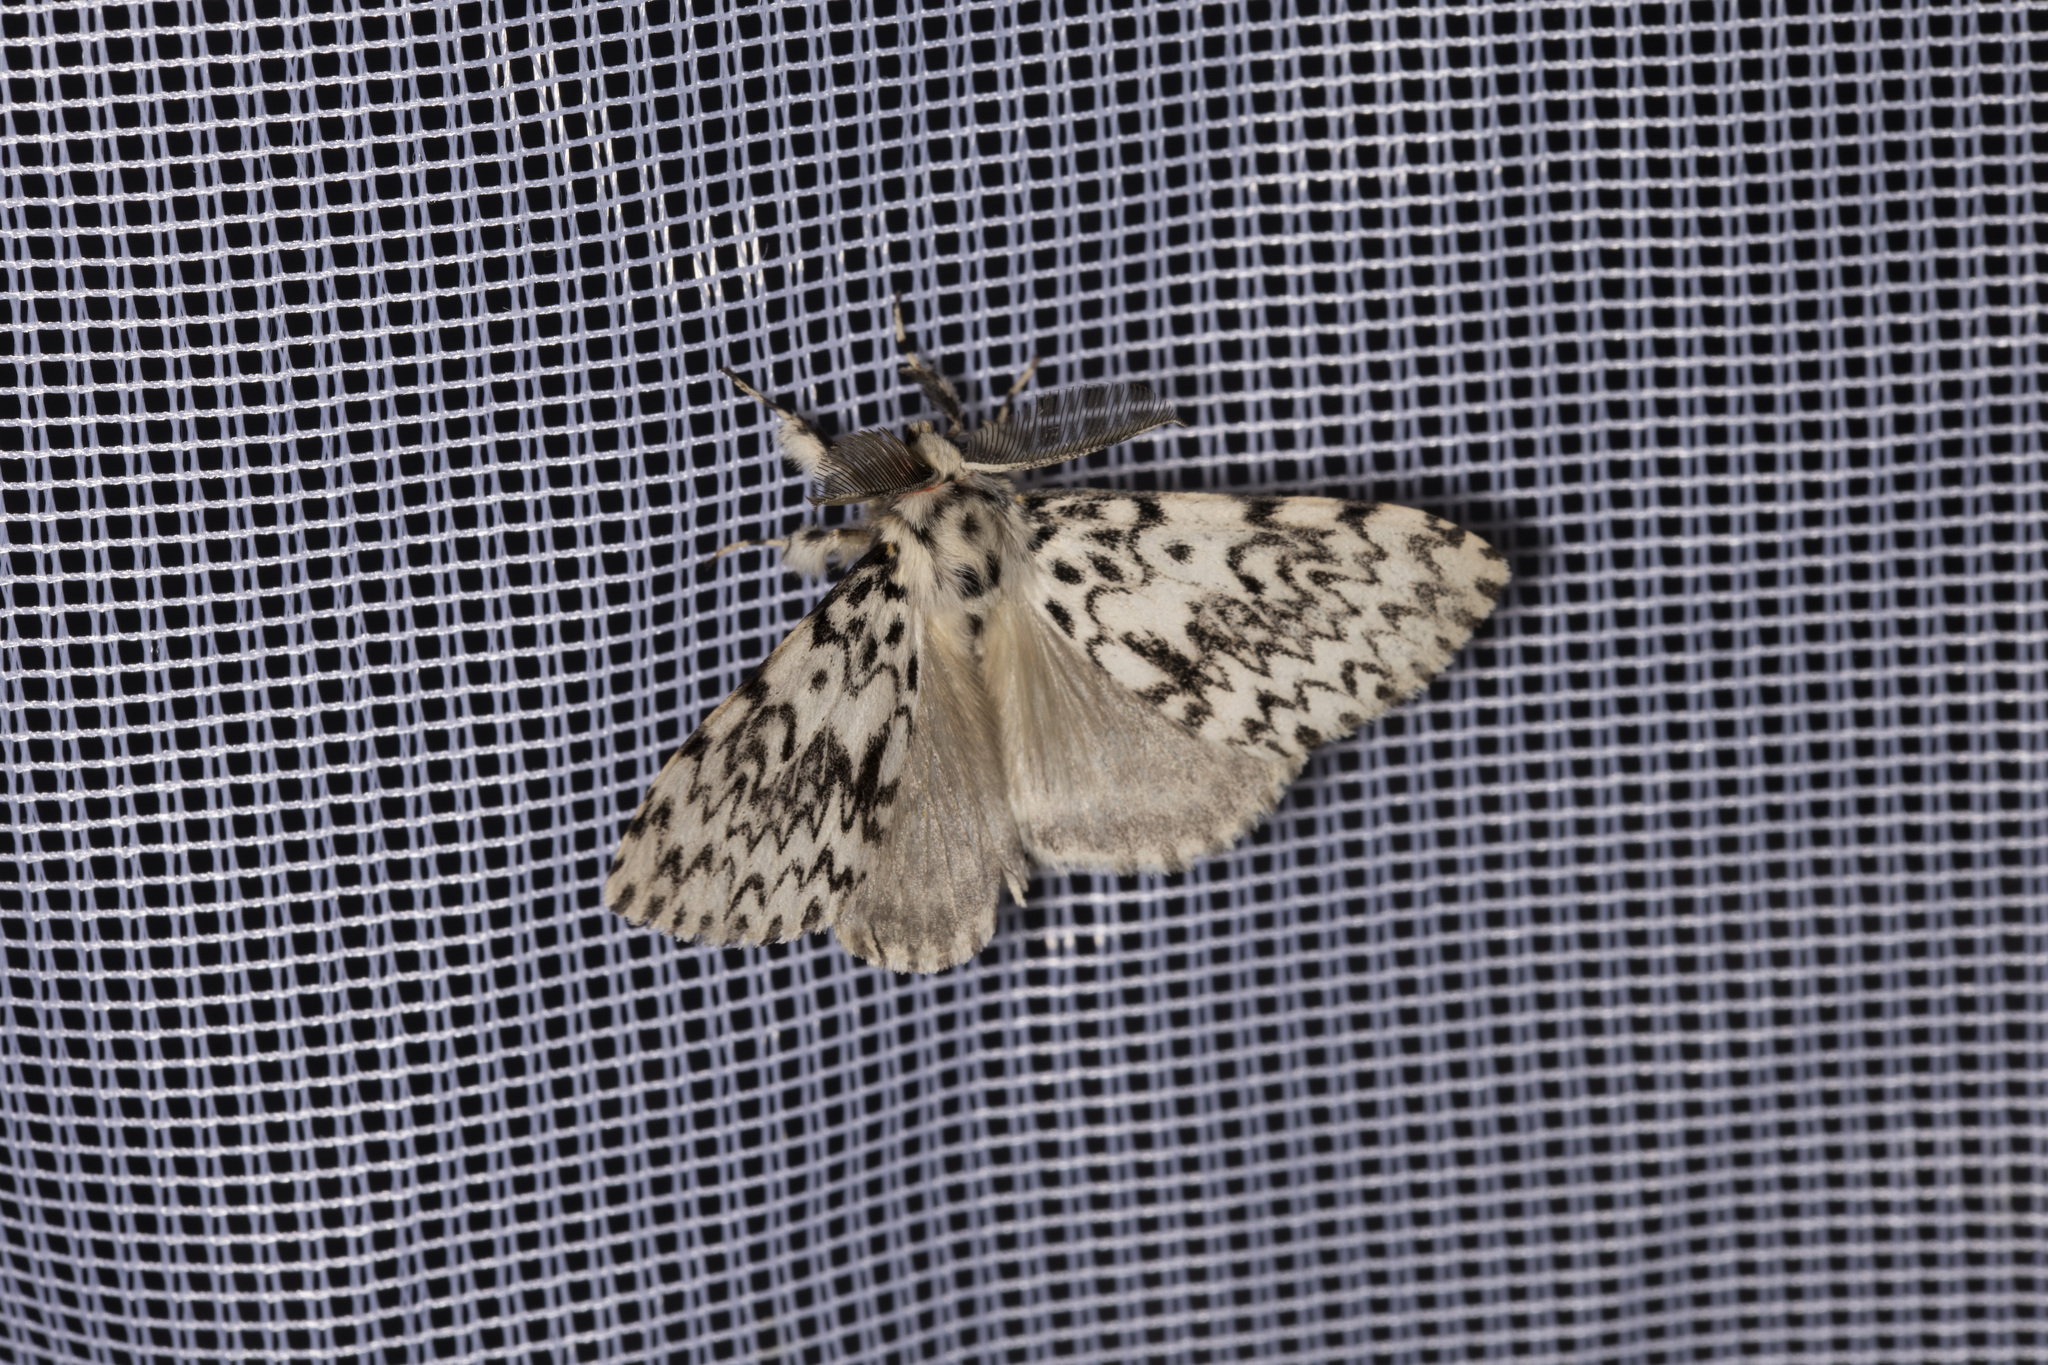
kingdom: Animalia
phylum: Arthropoda
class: Insecta
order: Lepidoptera
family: Erebidae
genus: Lymantria
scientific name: Lymantria monacha
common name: Black arches
